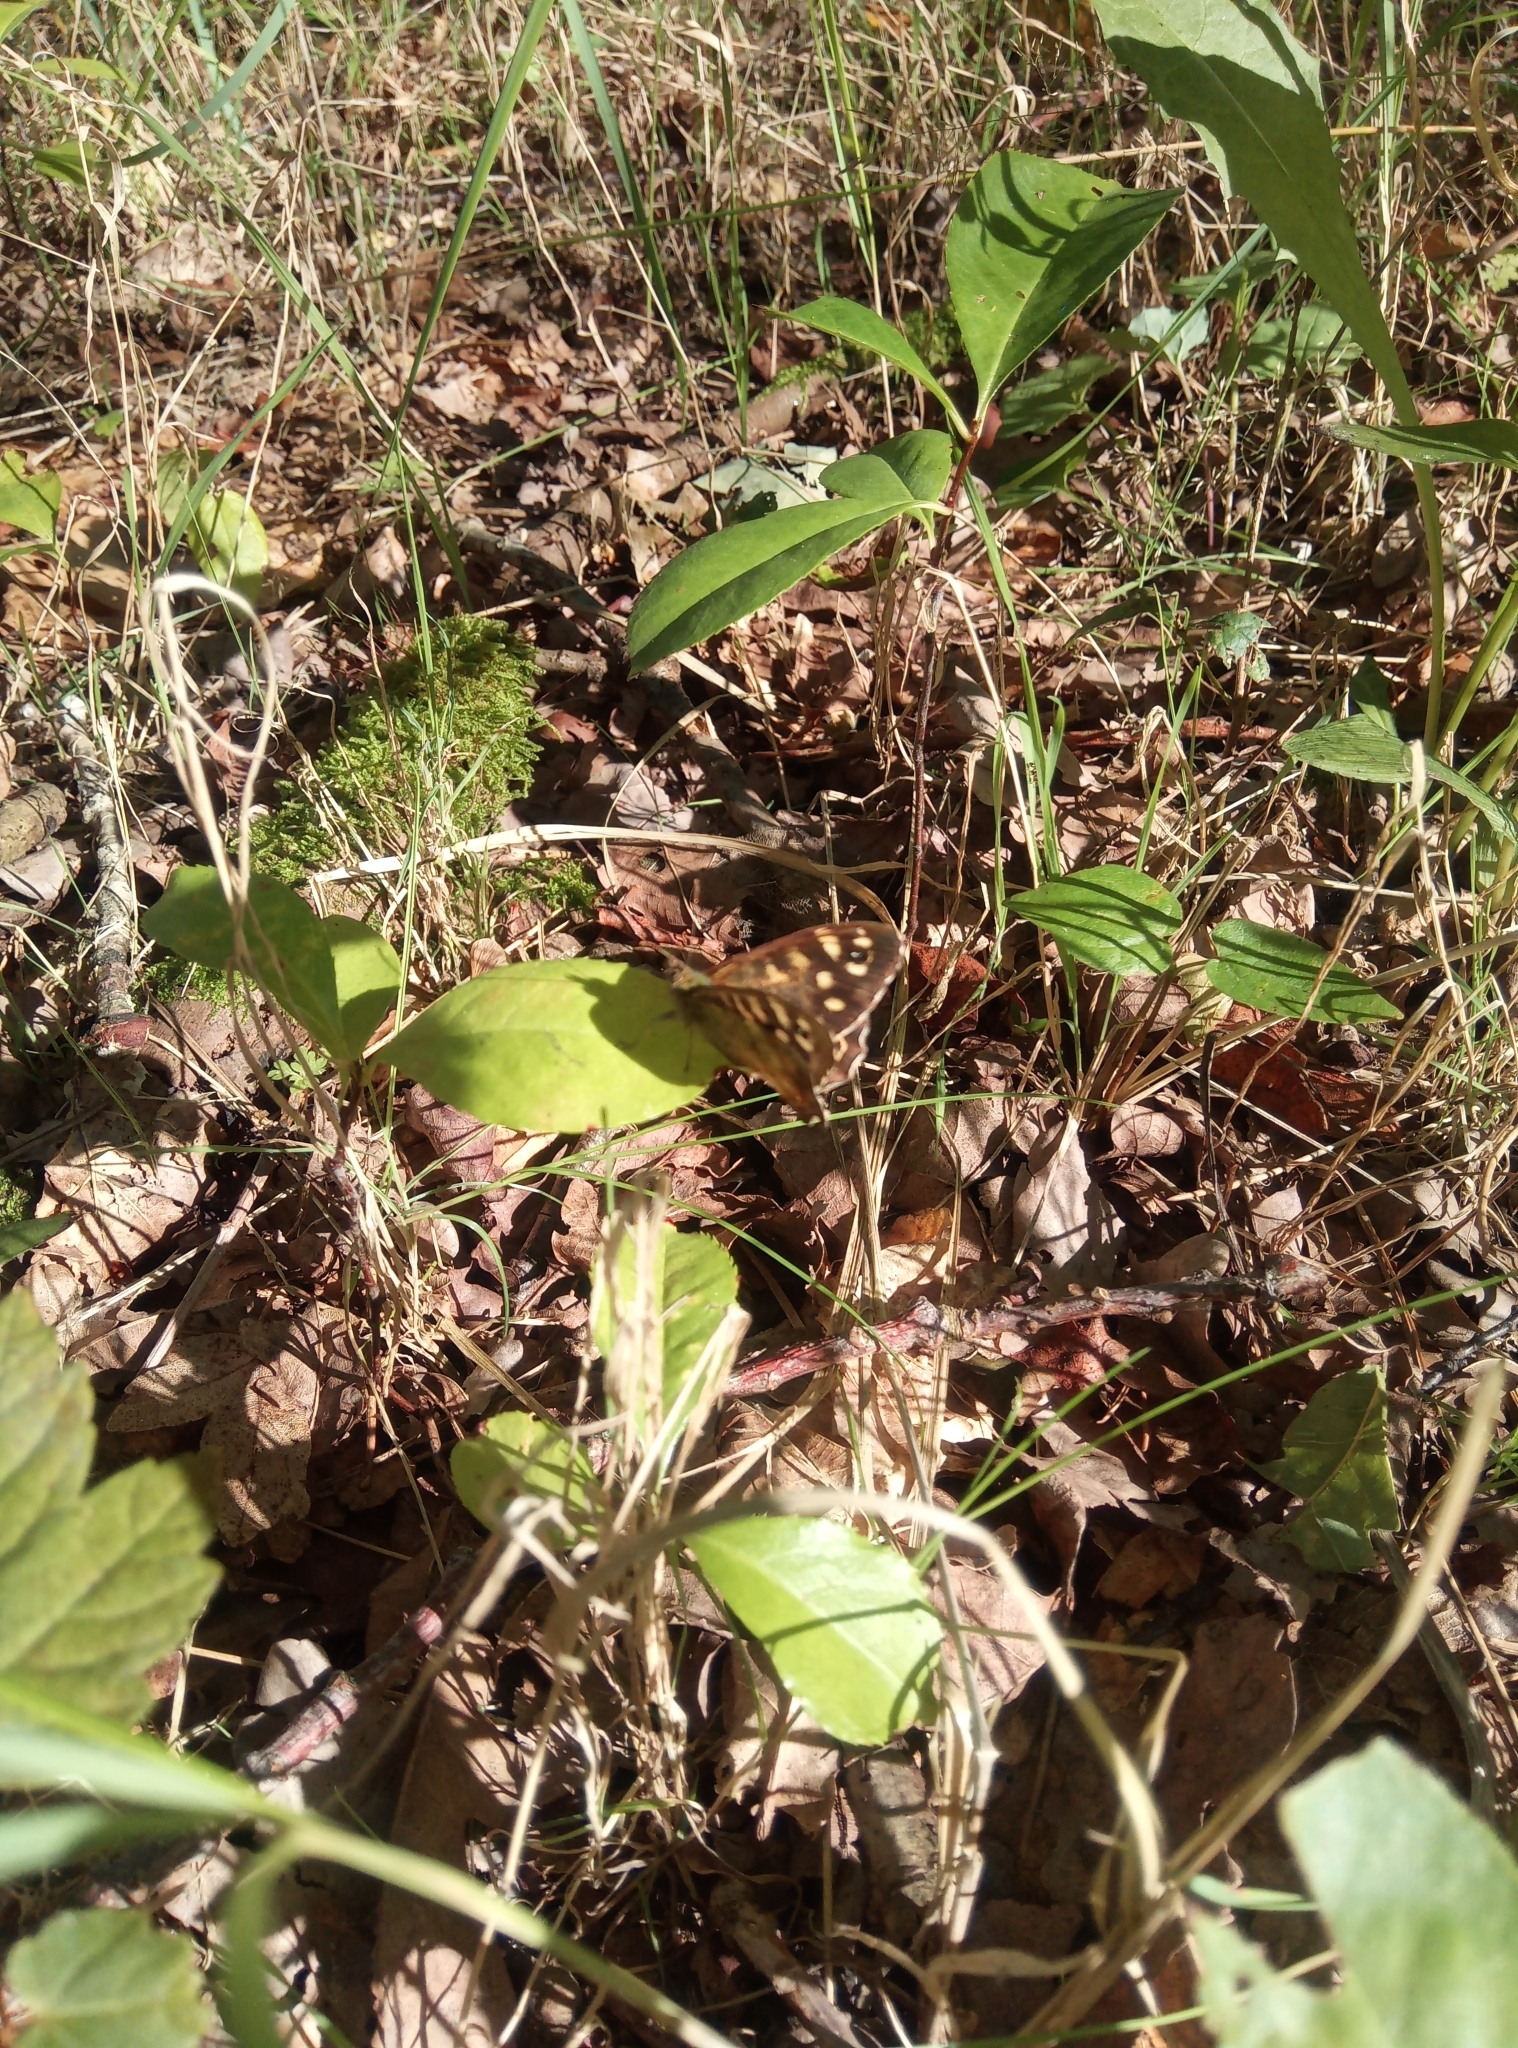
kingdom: Animalia
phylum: Arthropoda
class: Insecta
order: Lepidoptera
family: Nymphalidae
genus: Pararge
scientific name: Pararge aegeria
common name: Speckled wood
